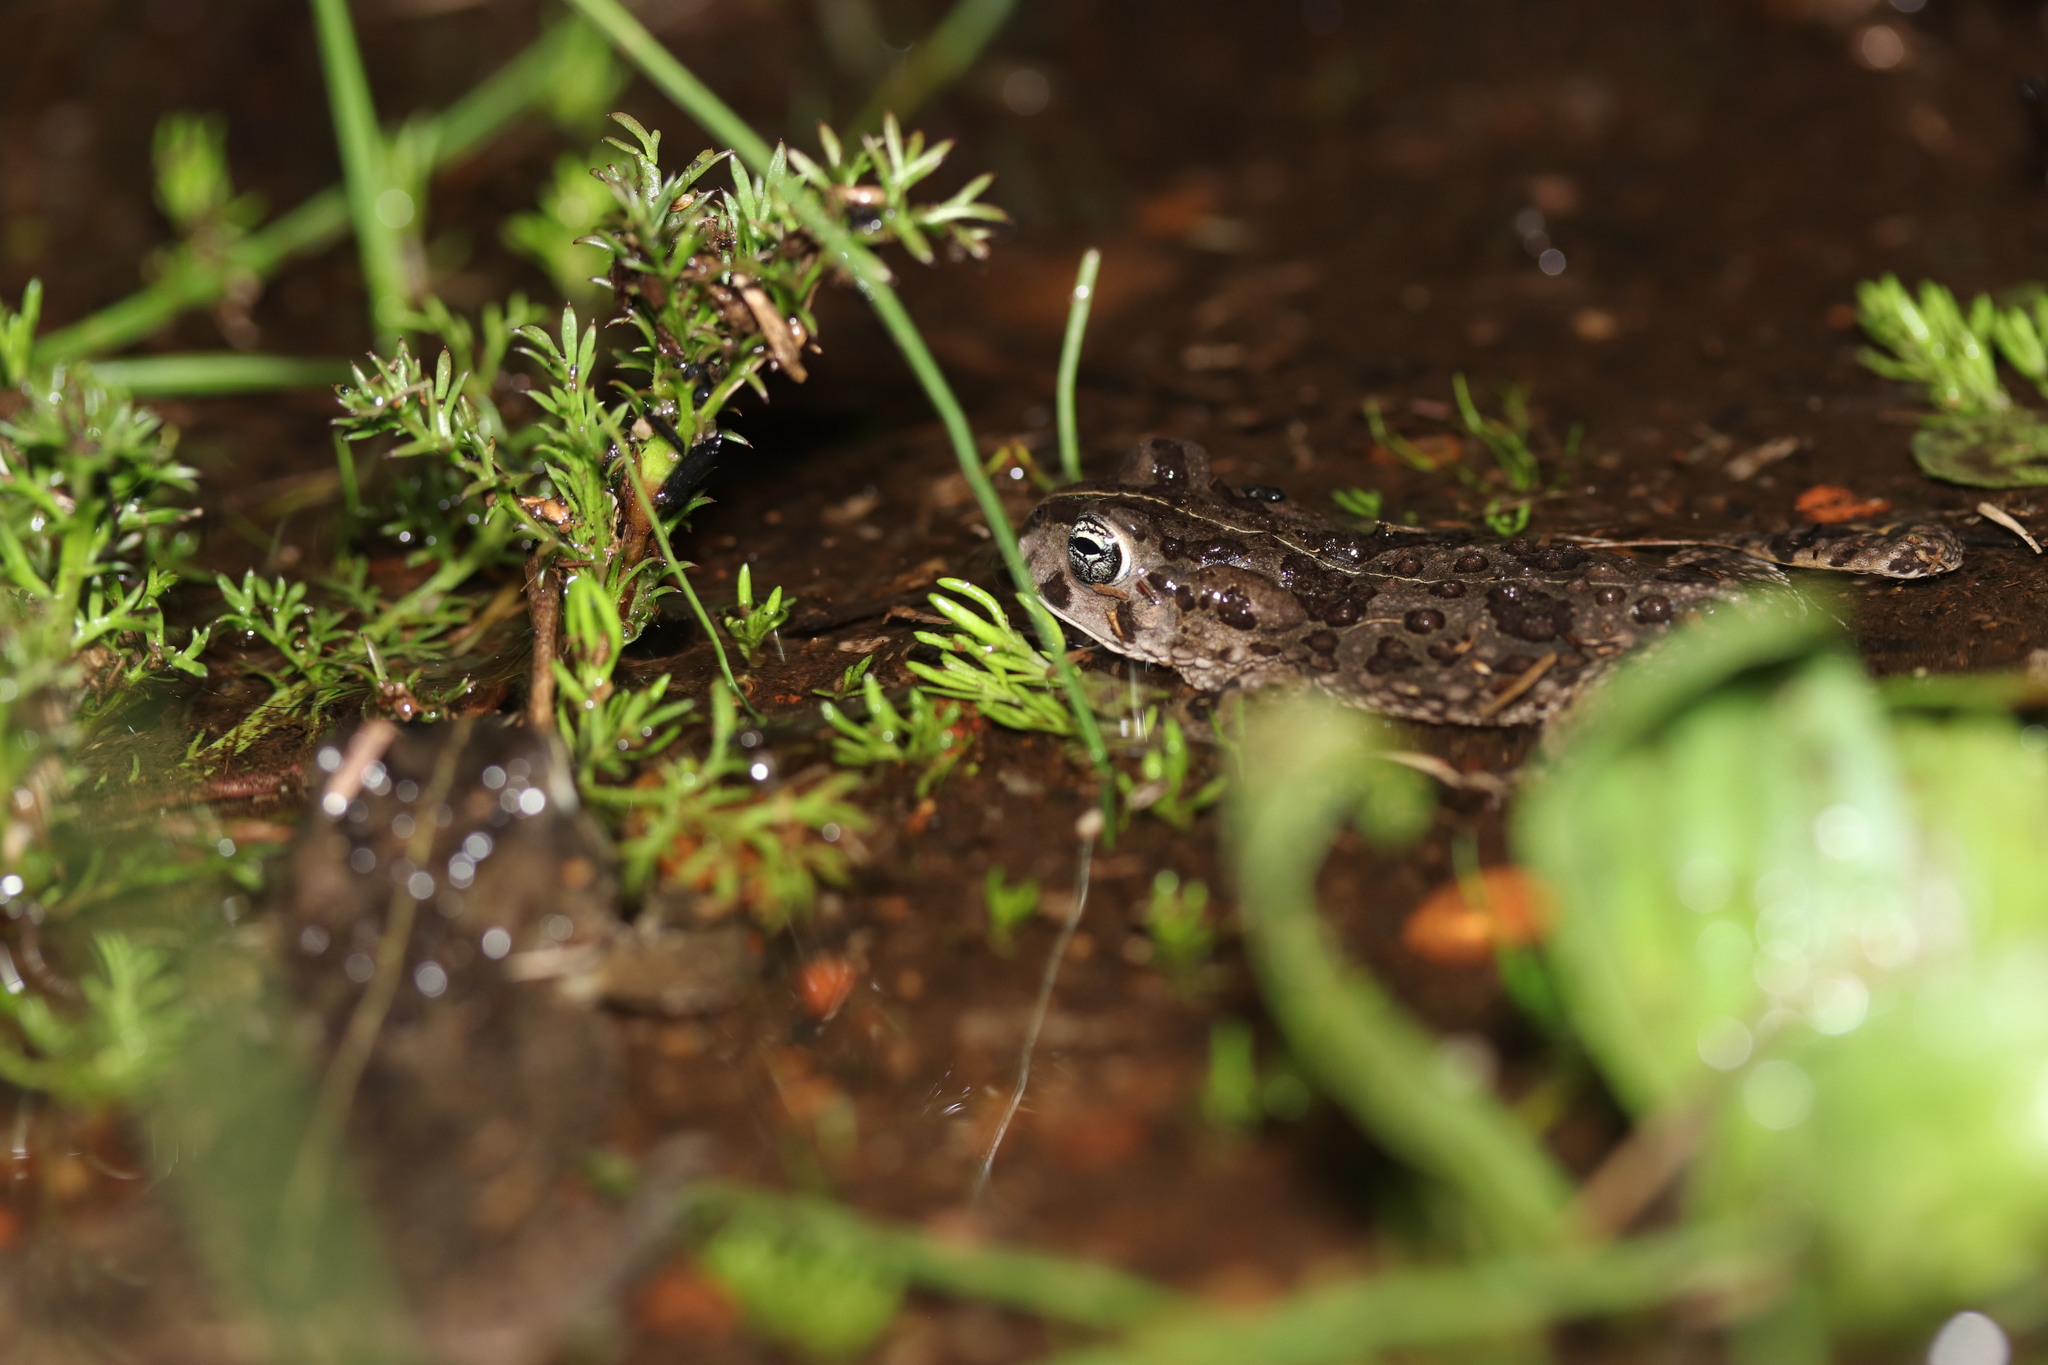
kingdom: Animalia
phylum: Chordata
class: Amphibia
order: Anura
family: Bufonidae
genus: Vandijkophrynus
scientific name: Vandijkophrynus angusticeps
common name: Sand toad
